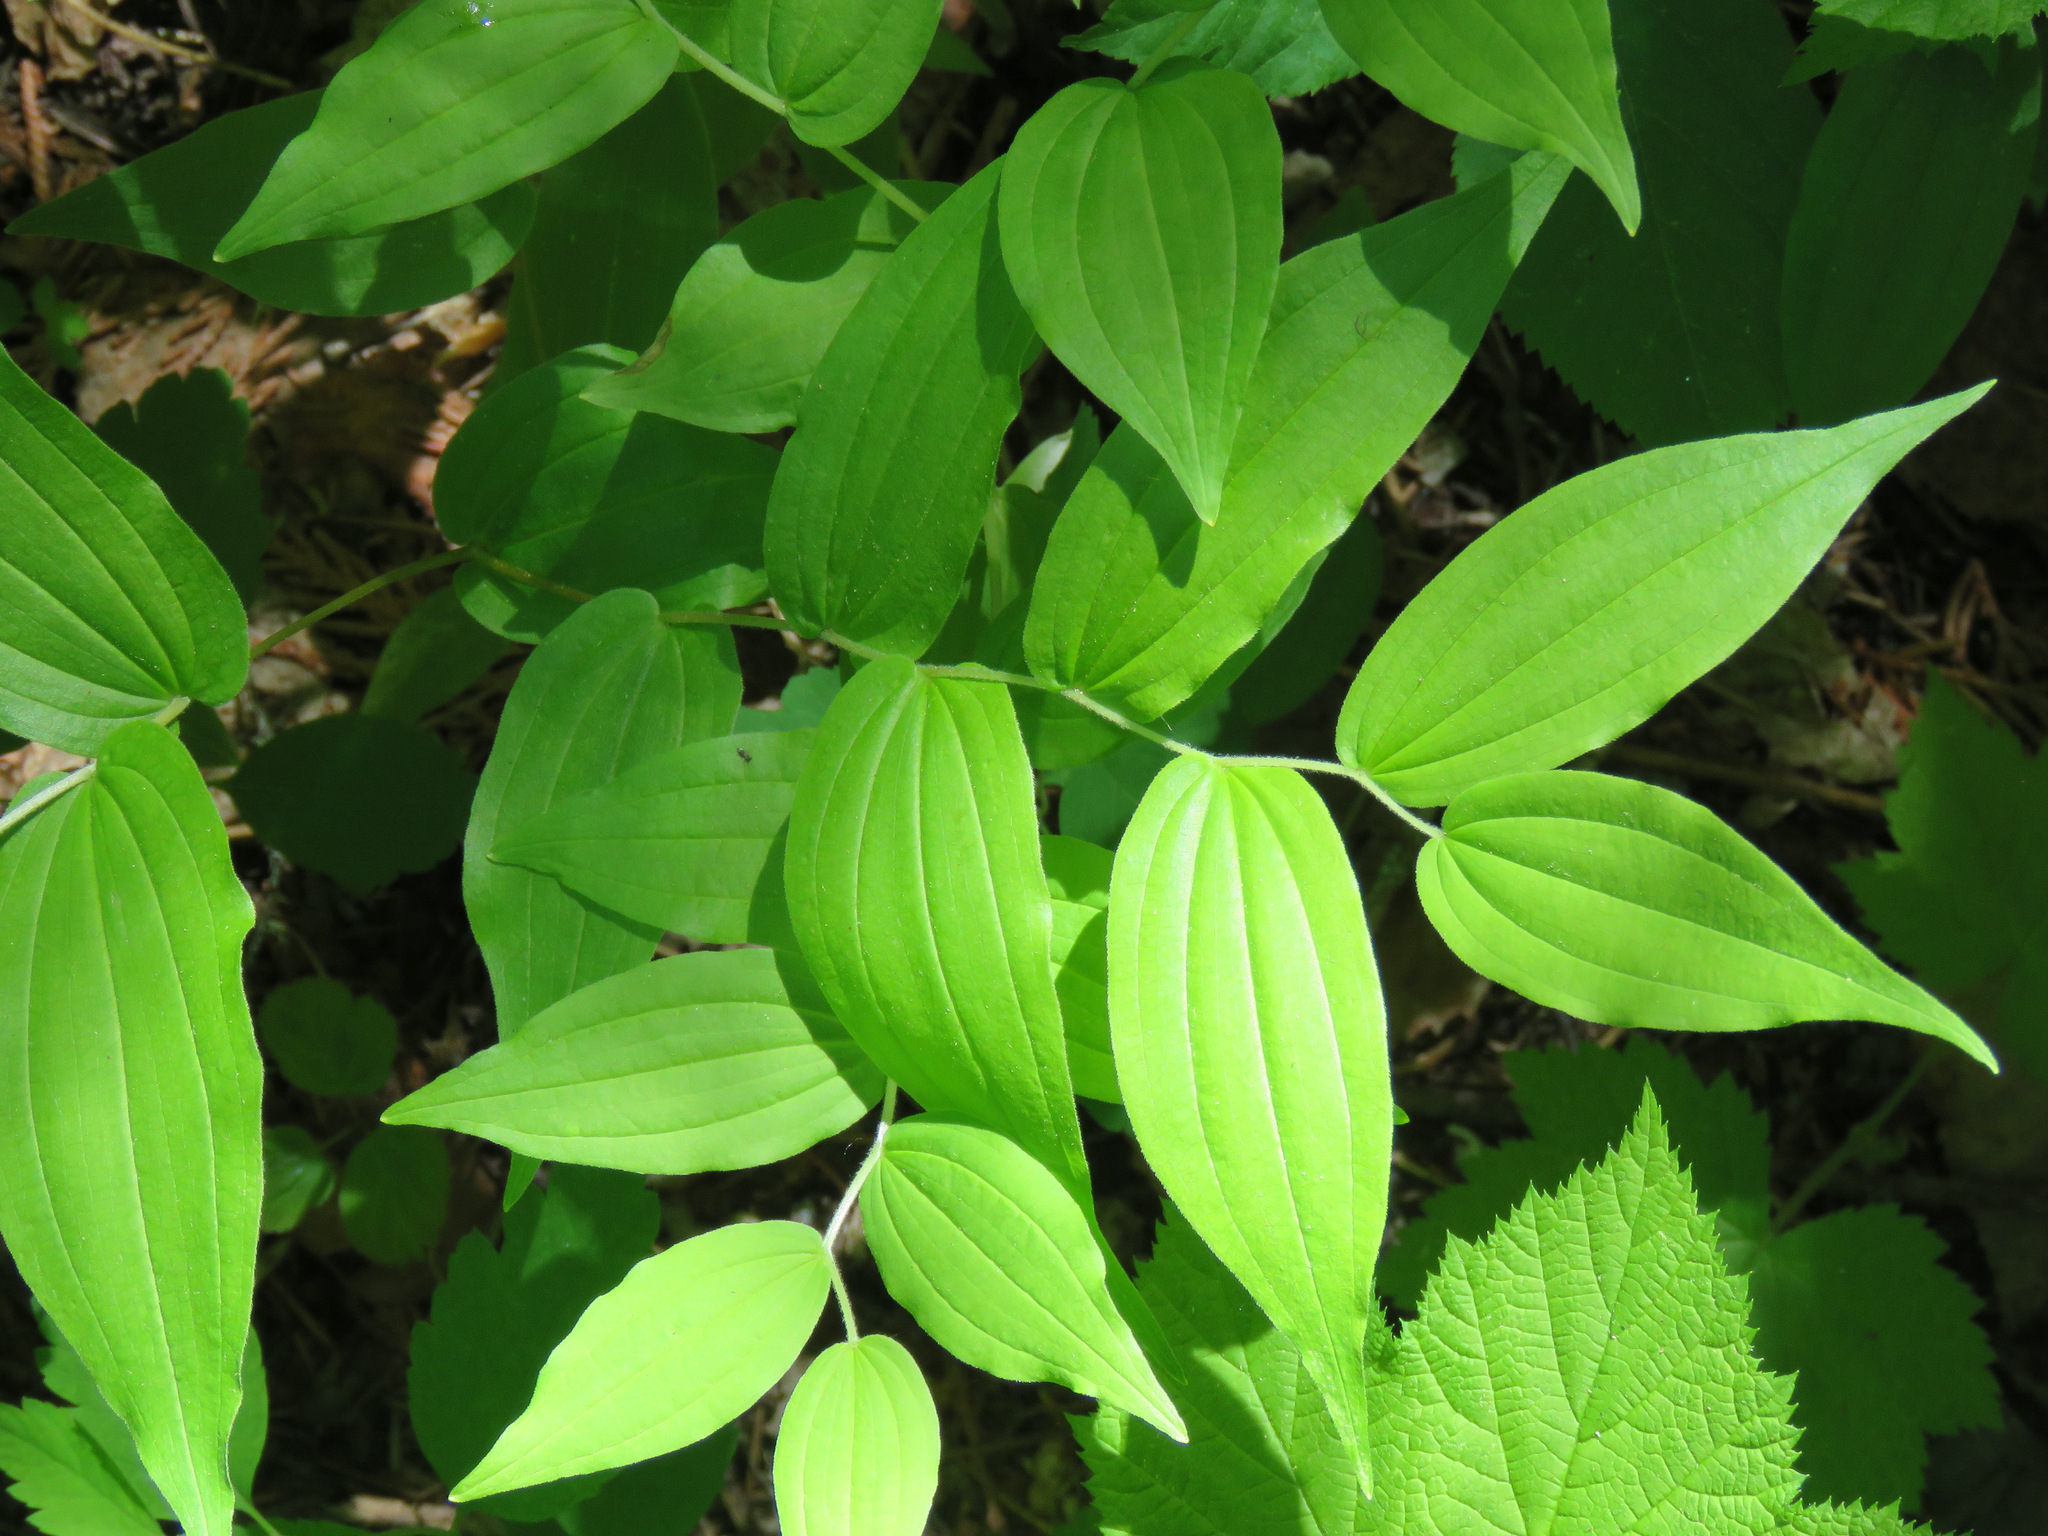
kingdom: Plantae
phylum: Tracheophyta
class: Liliopsida
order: Liliales
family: Liliaceae
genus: Prosartes
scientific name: Prosartes hookeri
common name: Fairy-bells
